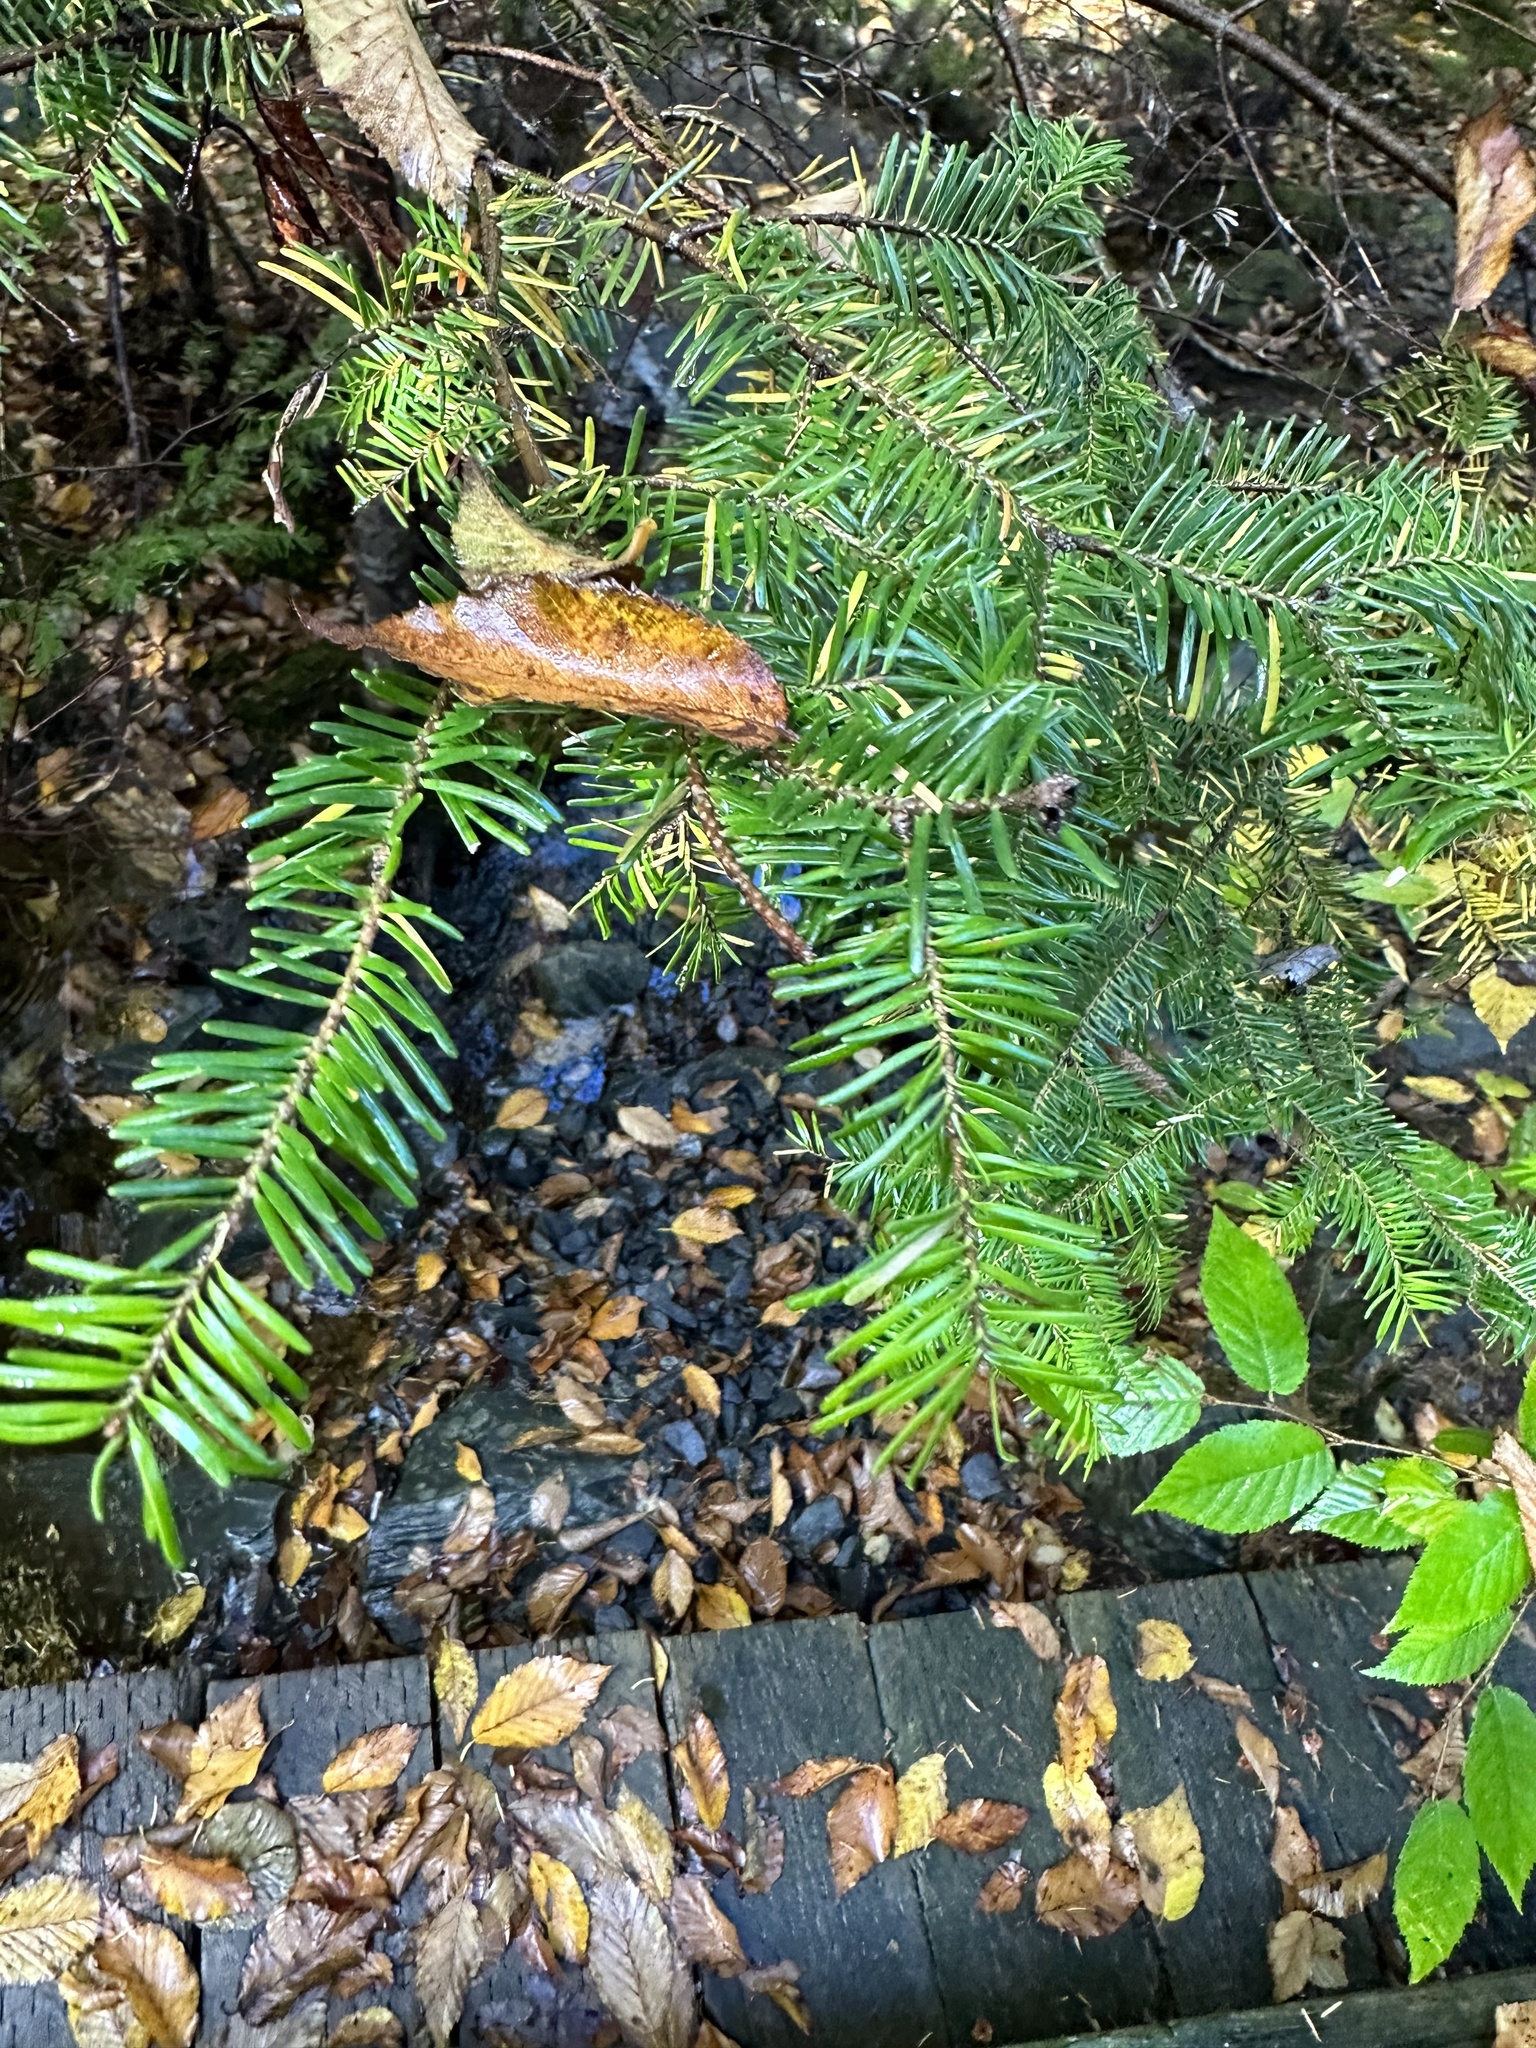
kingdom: Plantae
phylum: Tracheophyta
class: Pinopsida
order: Pinales
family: Pinaceae
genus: Abies
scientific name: Abies balsamea
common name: Balsam fir
